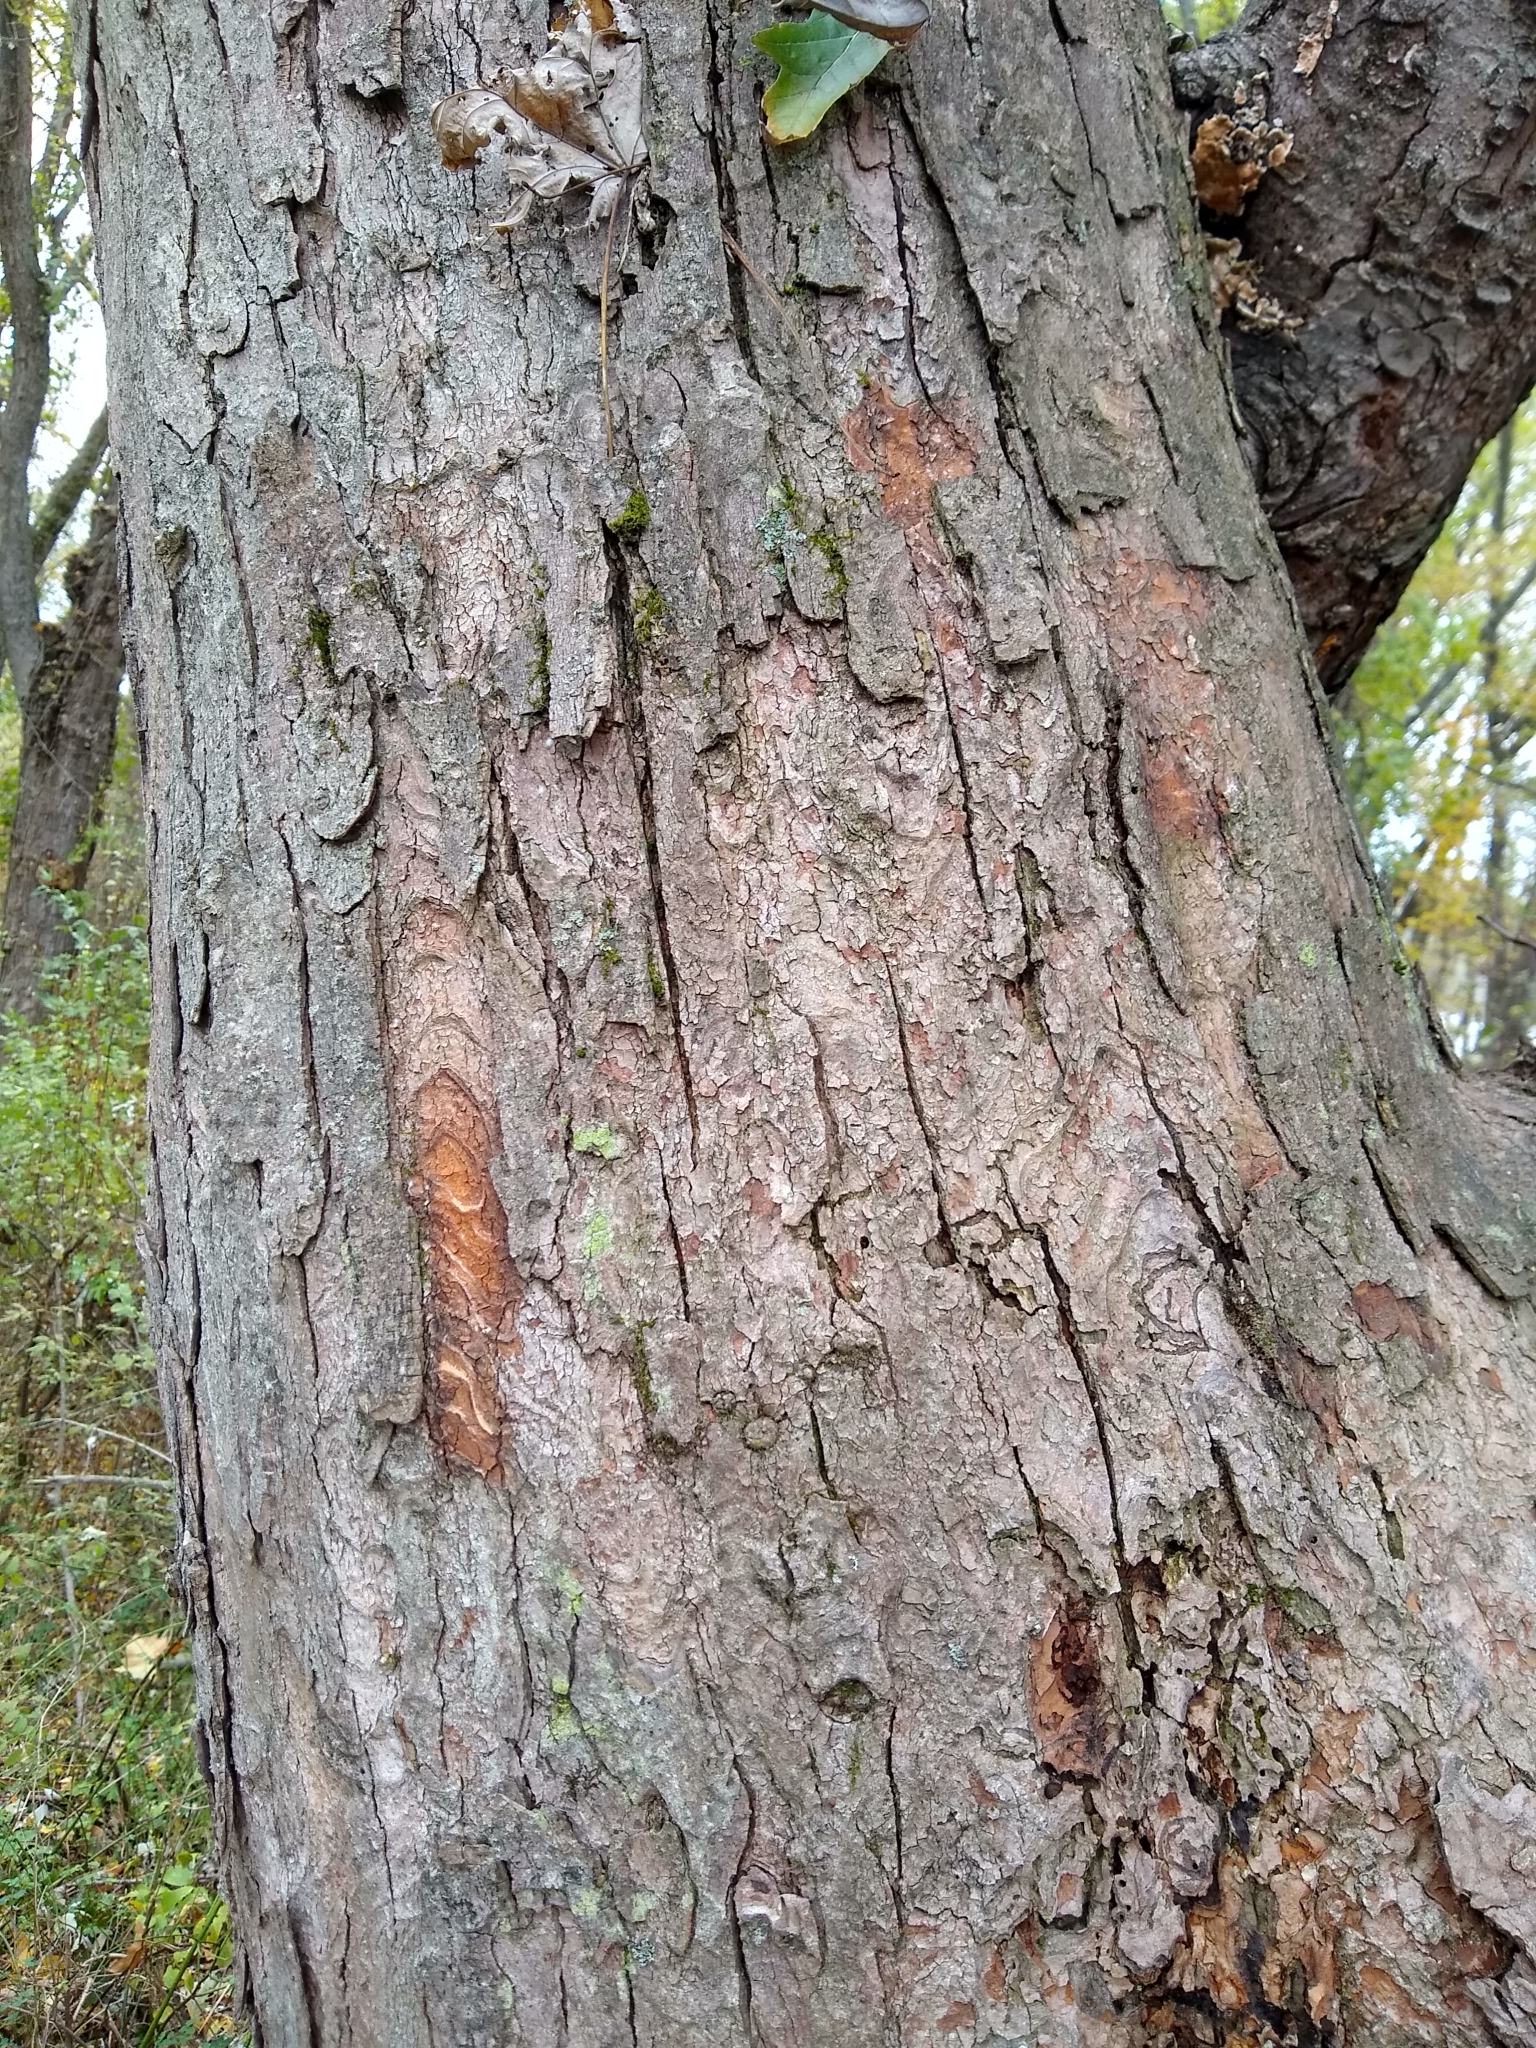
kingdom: Plantae
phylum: Tracheophyta
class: Magnoliopsida
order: Sapindales
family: Sapindaceae
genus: Acer
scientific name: Acer saccharinum
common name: Silver maple
